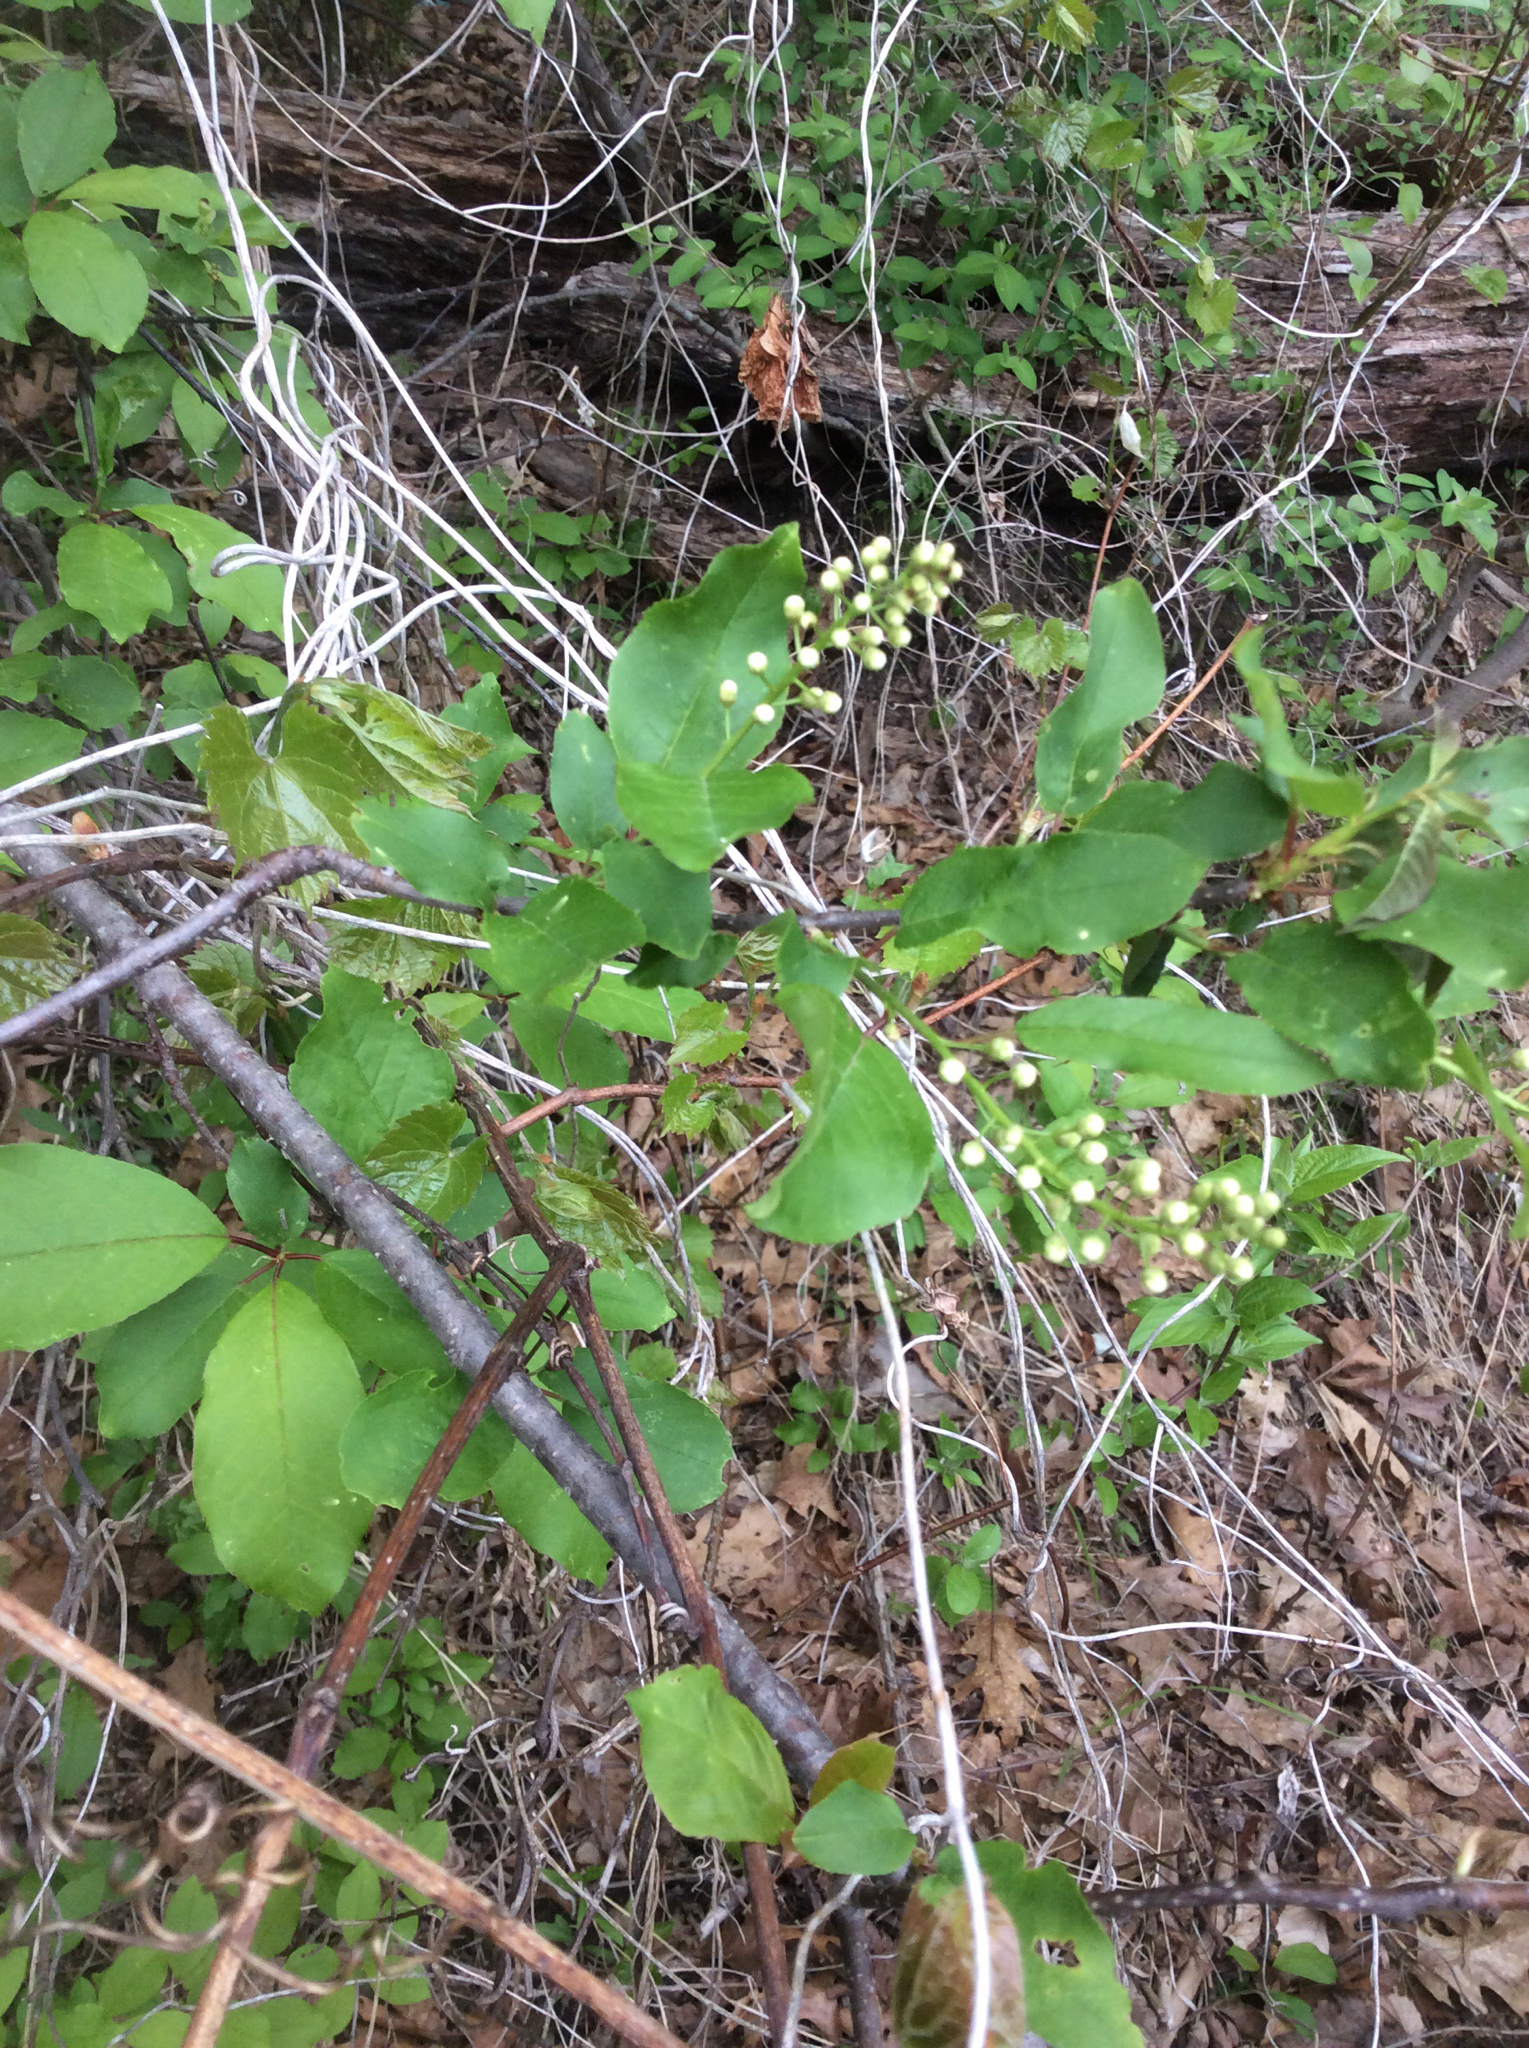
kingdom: Plantae
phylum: Tracheophyta
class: Magnoliopsida
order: Rosales
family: Rosaceae
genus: Prunus
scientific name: Prunus virginiana
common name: Chokecherry
